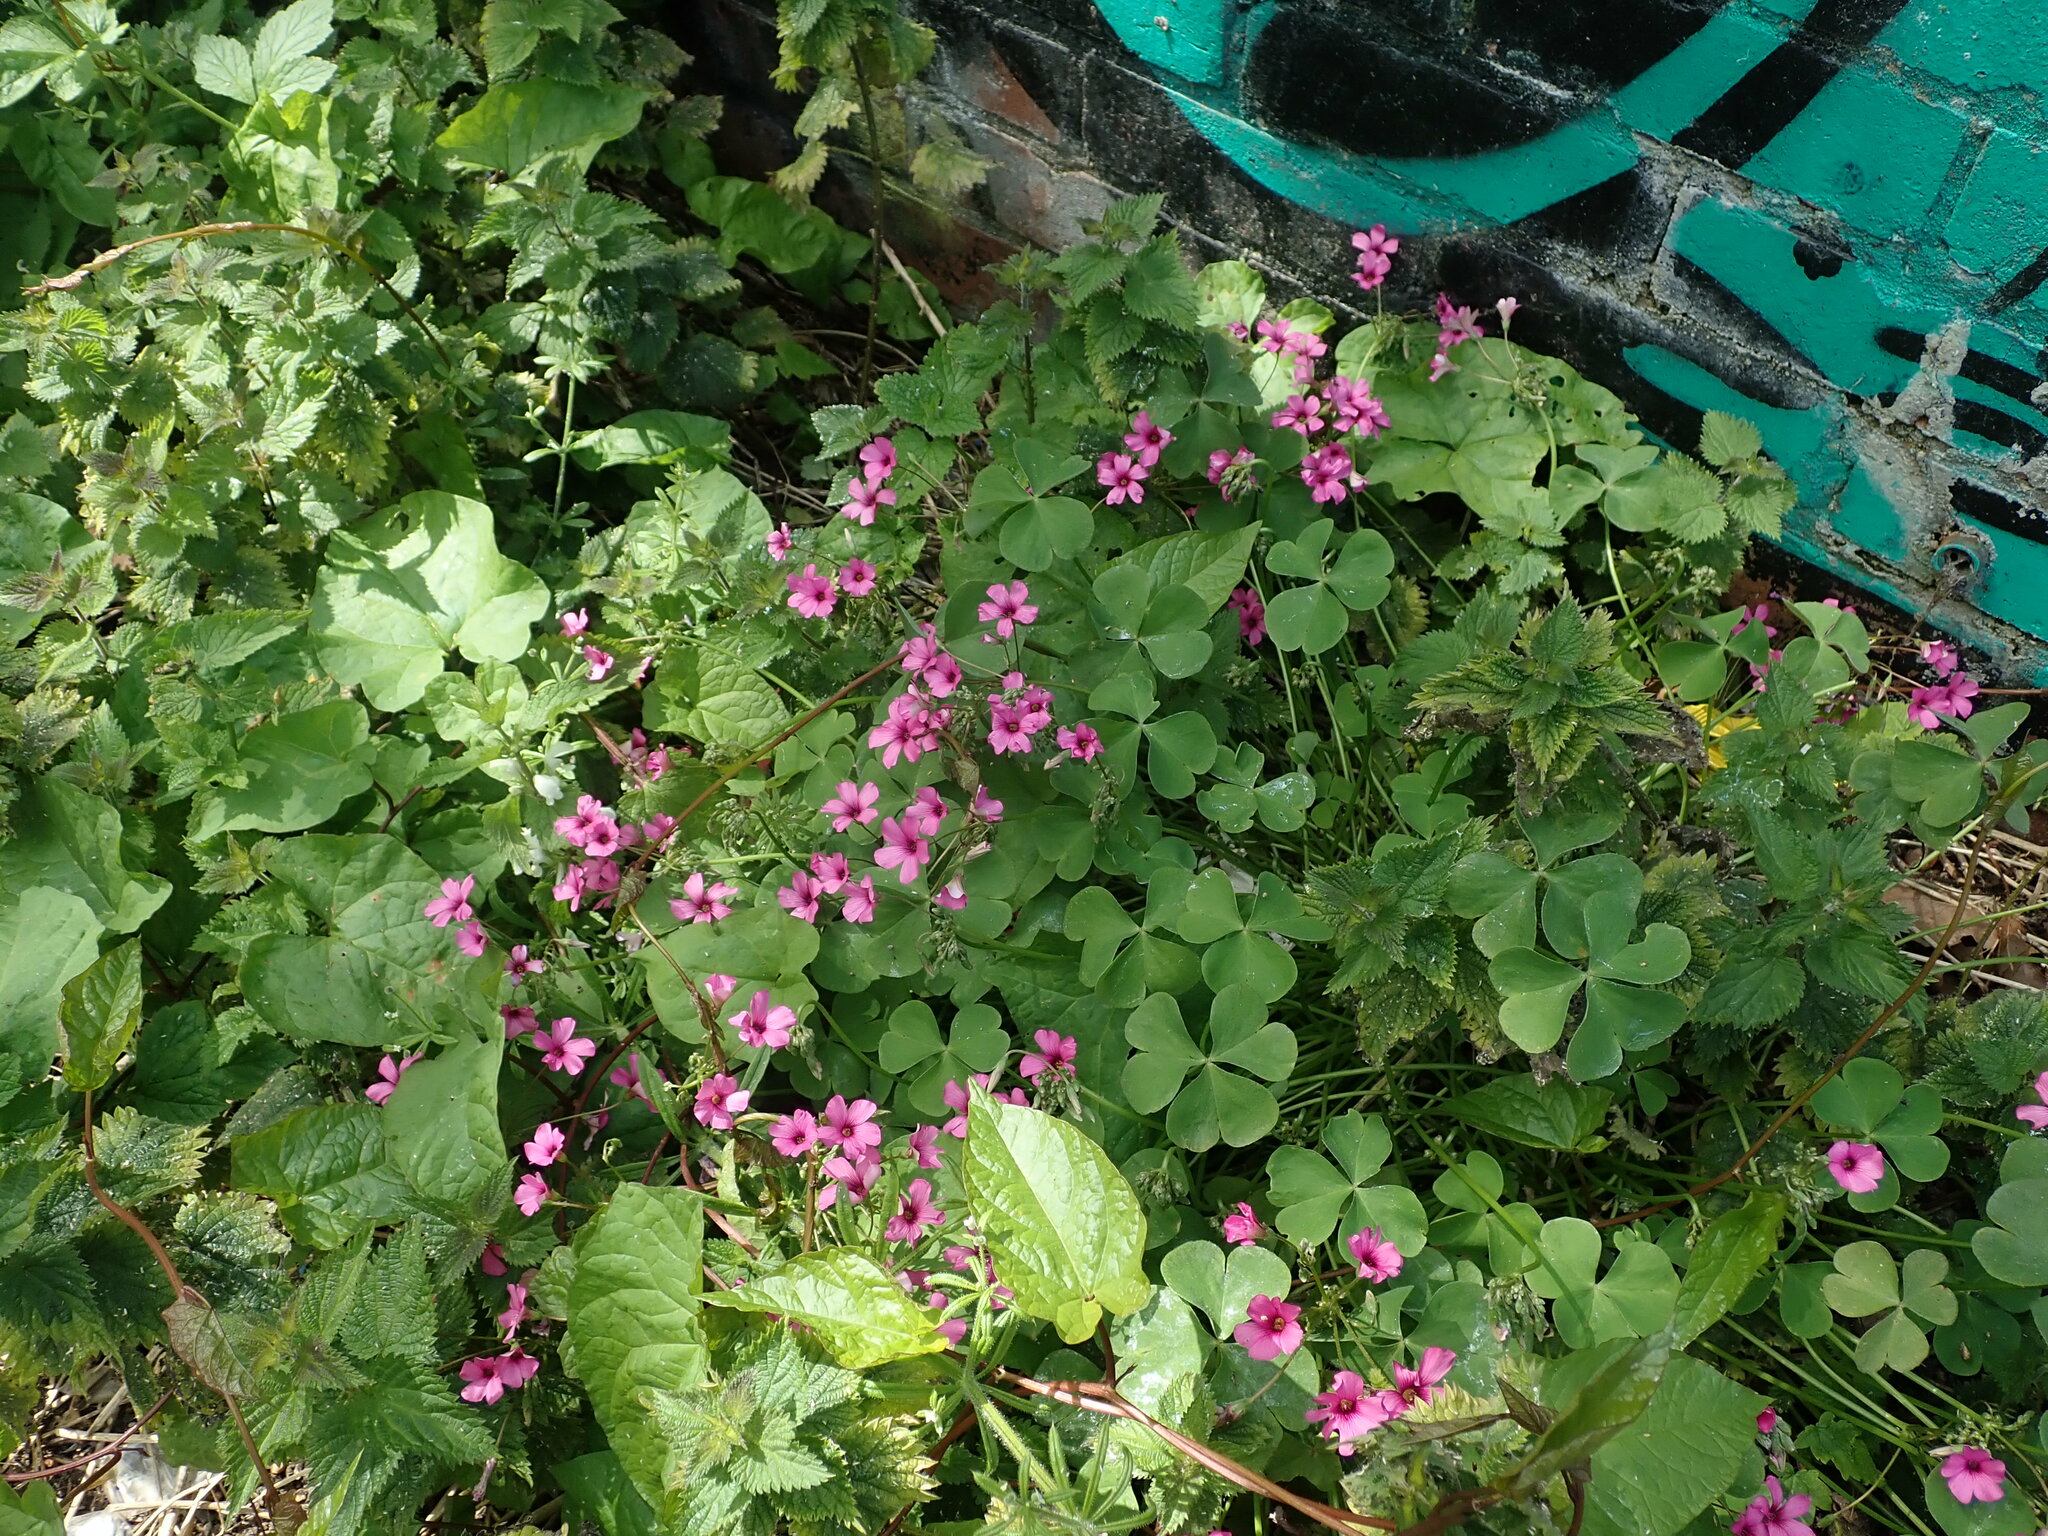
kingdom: Plantae
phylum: Tracheophyta
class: Magnoliopsida
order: Oxalidales
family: Oxalidaceae
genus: Oxalis
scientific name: Oxalis articulata
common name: Pink-sorrel
